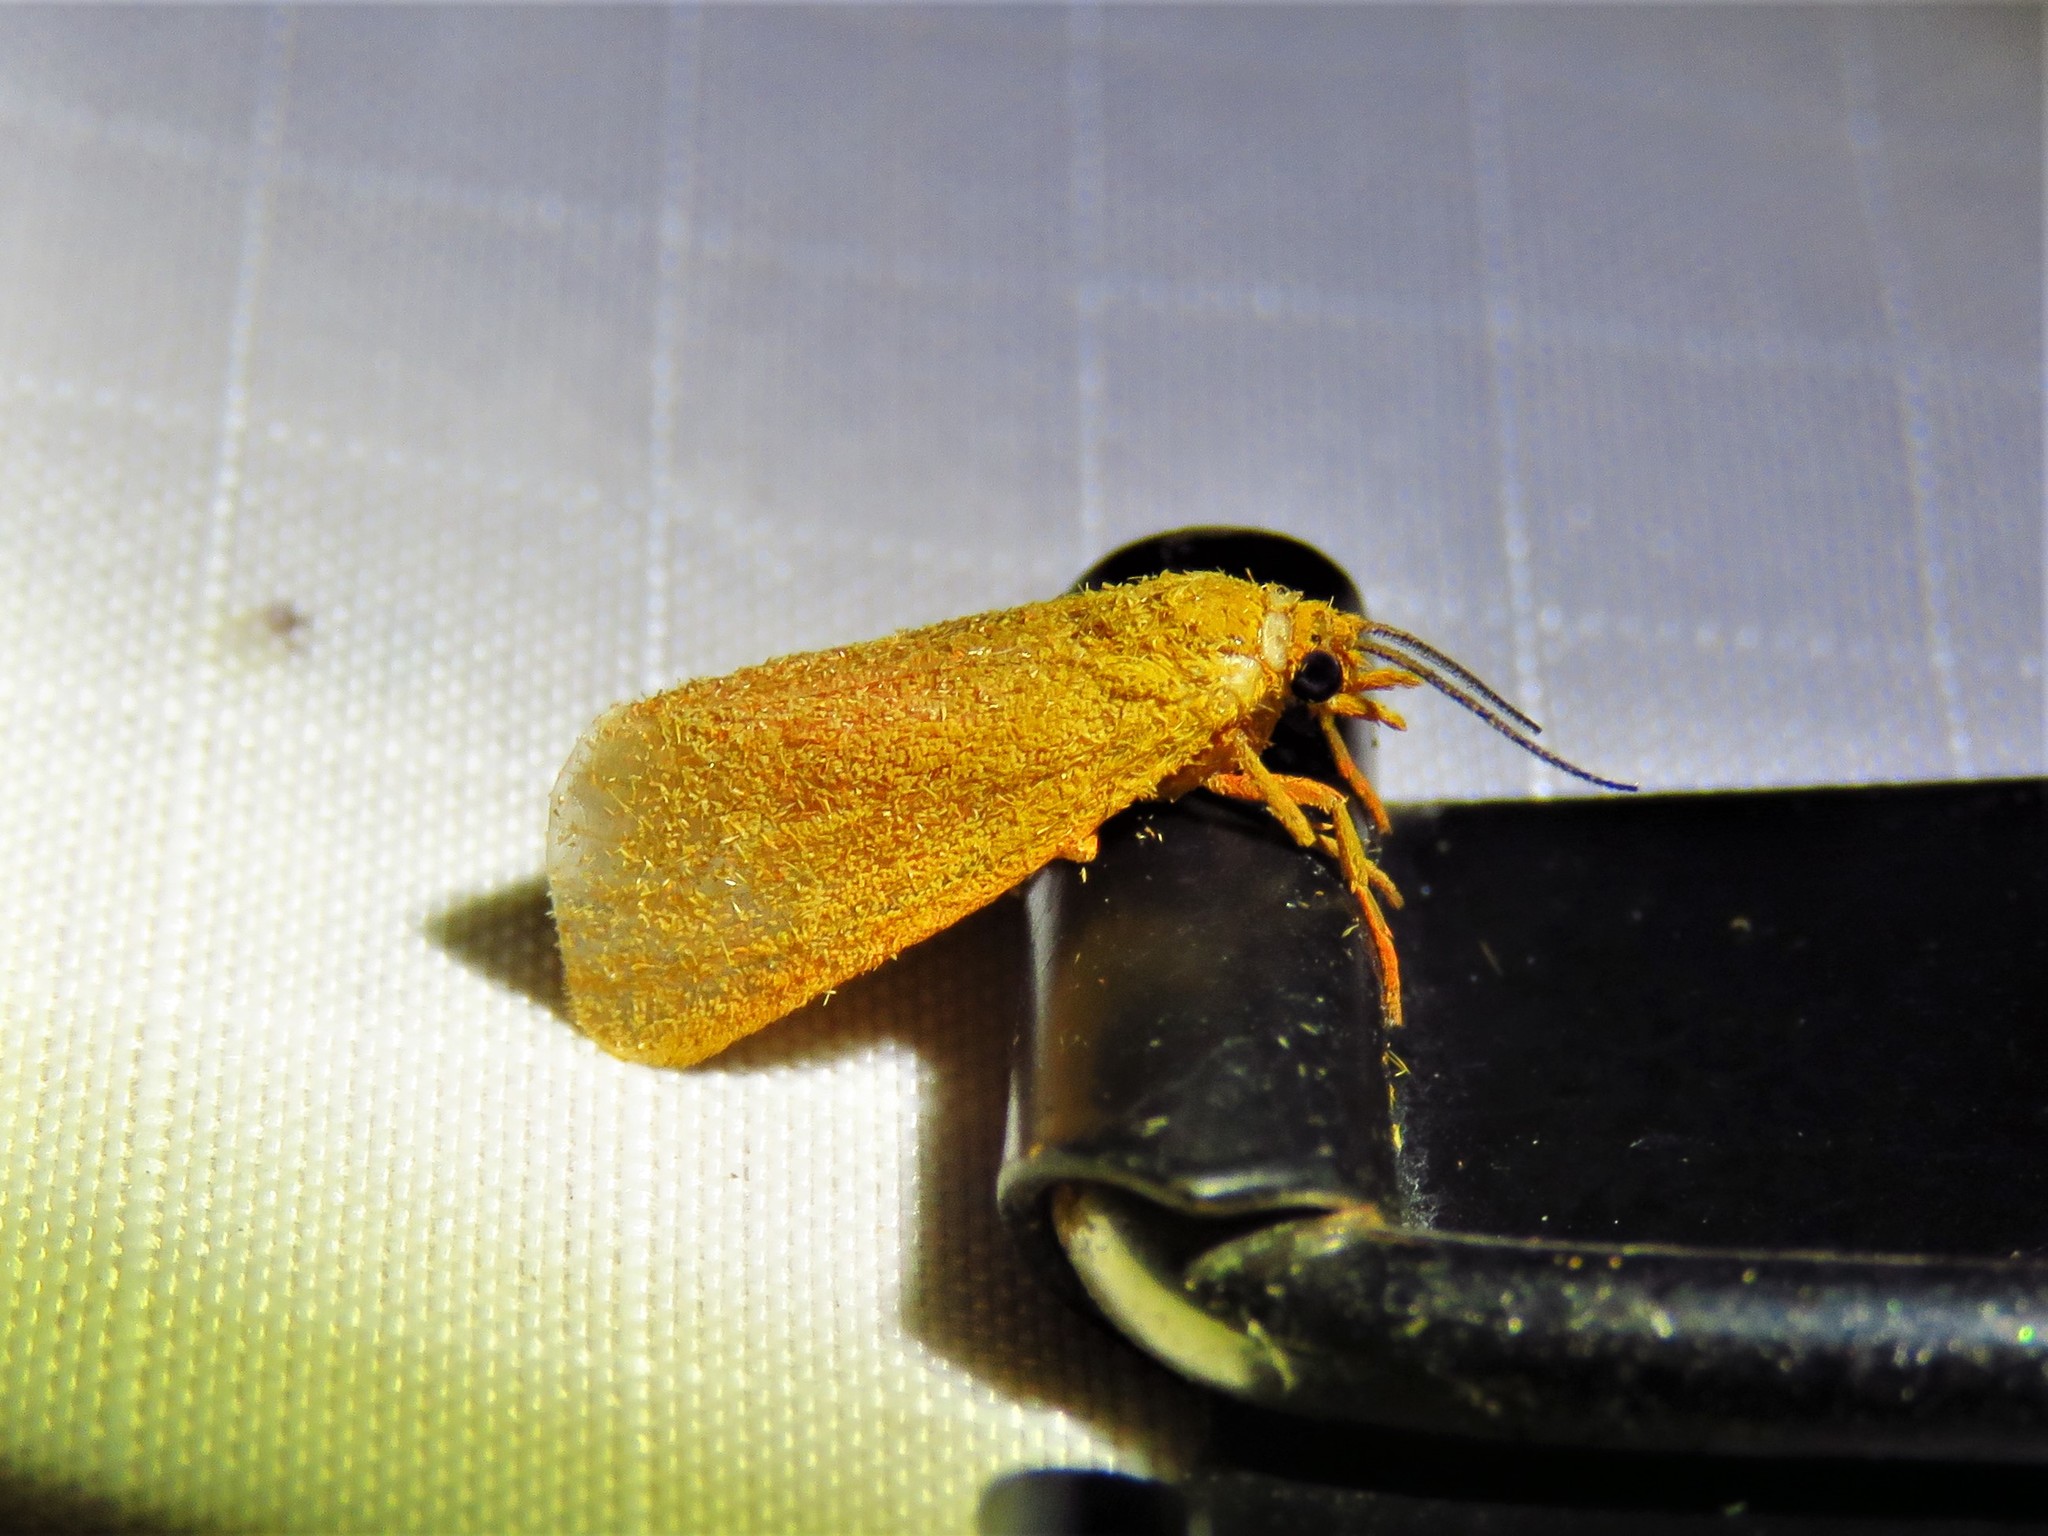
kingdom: Animalia
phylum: Arthropoda
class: Insecta
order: Lepidoptera
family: Erebidae
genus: Virbia
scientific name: Virbia aurantiaca
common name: Orange virbia moth
